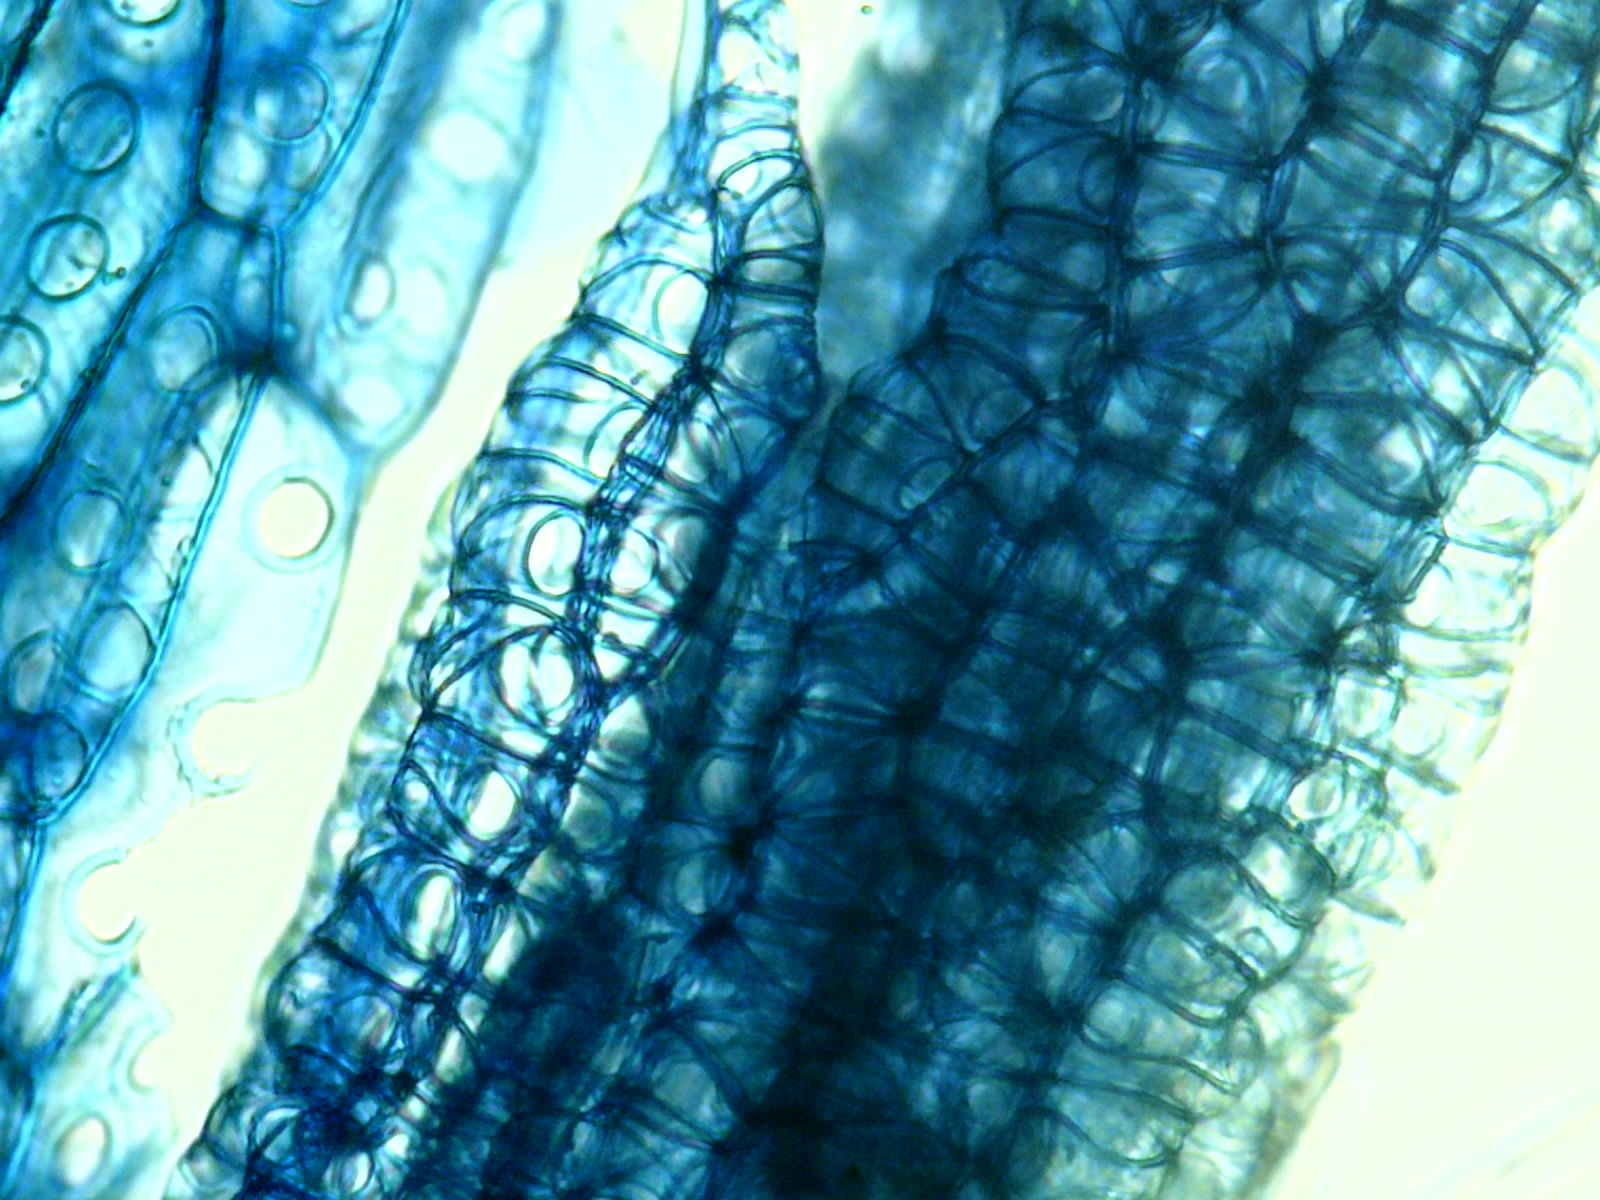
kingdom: Plantae
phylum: Bryophyta
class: Sphagnopsida
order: Sphagnales
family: Sphagnaceae
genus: Sphagnum
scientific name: Sphagnum centrale
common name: Central peat moss
